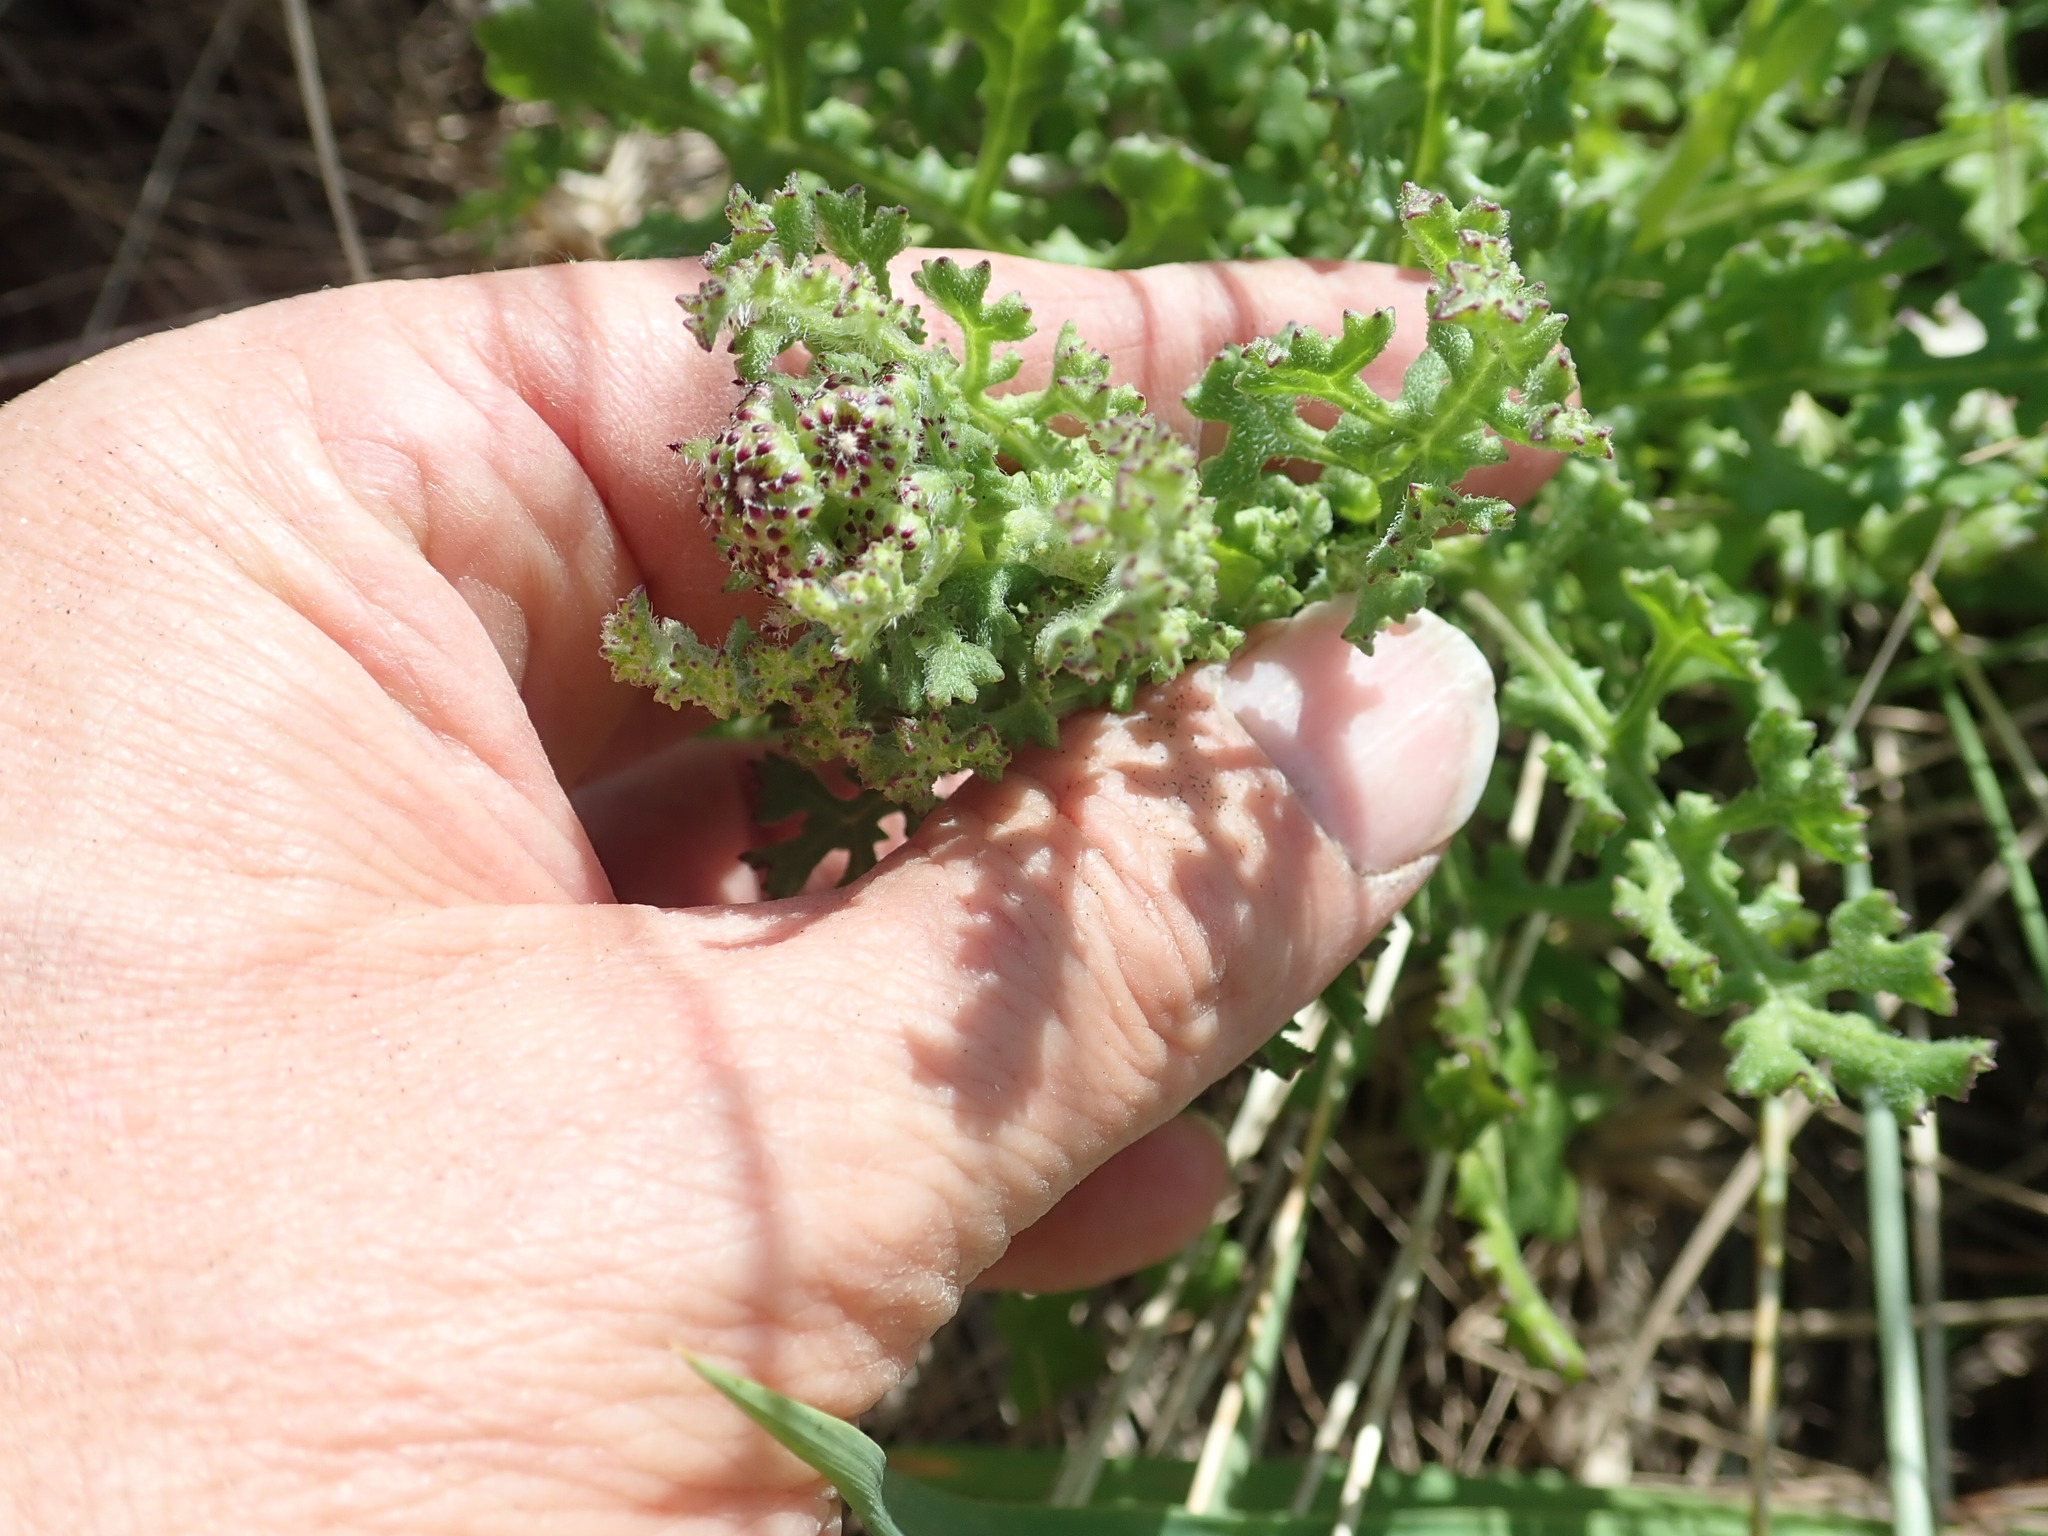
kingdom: Plantae
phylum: Tracheophyta
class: Magnoliopsida
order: Asterales
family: Asteraceae
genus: Senecio
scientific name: Senecio elegans
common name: Purple groundsel
